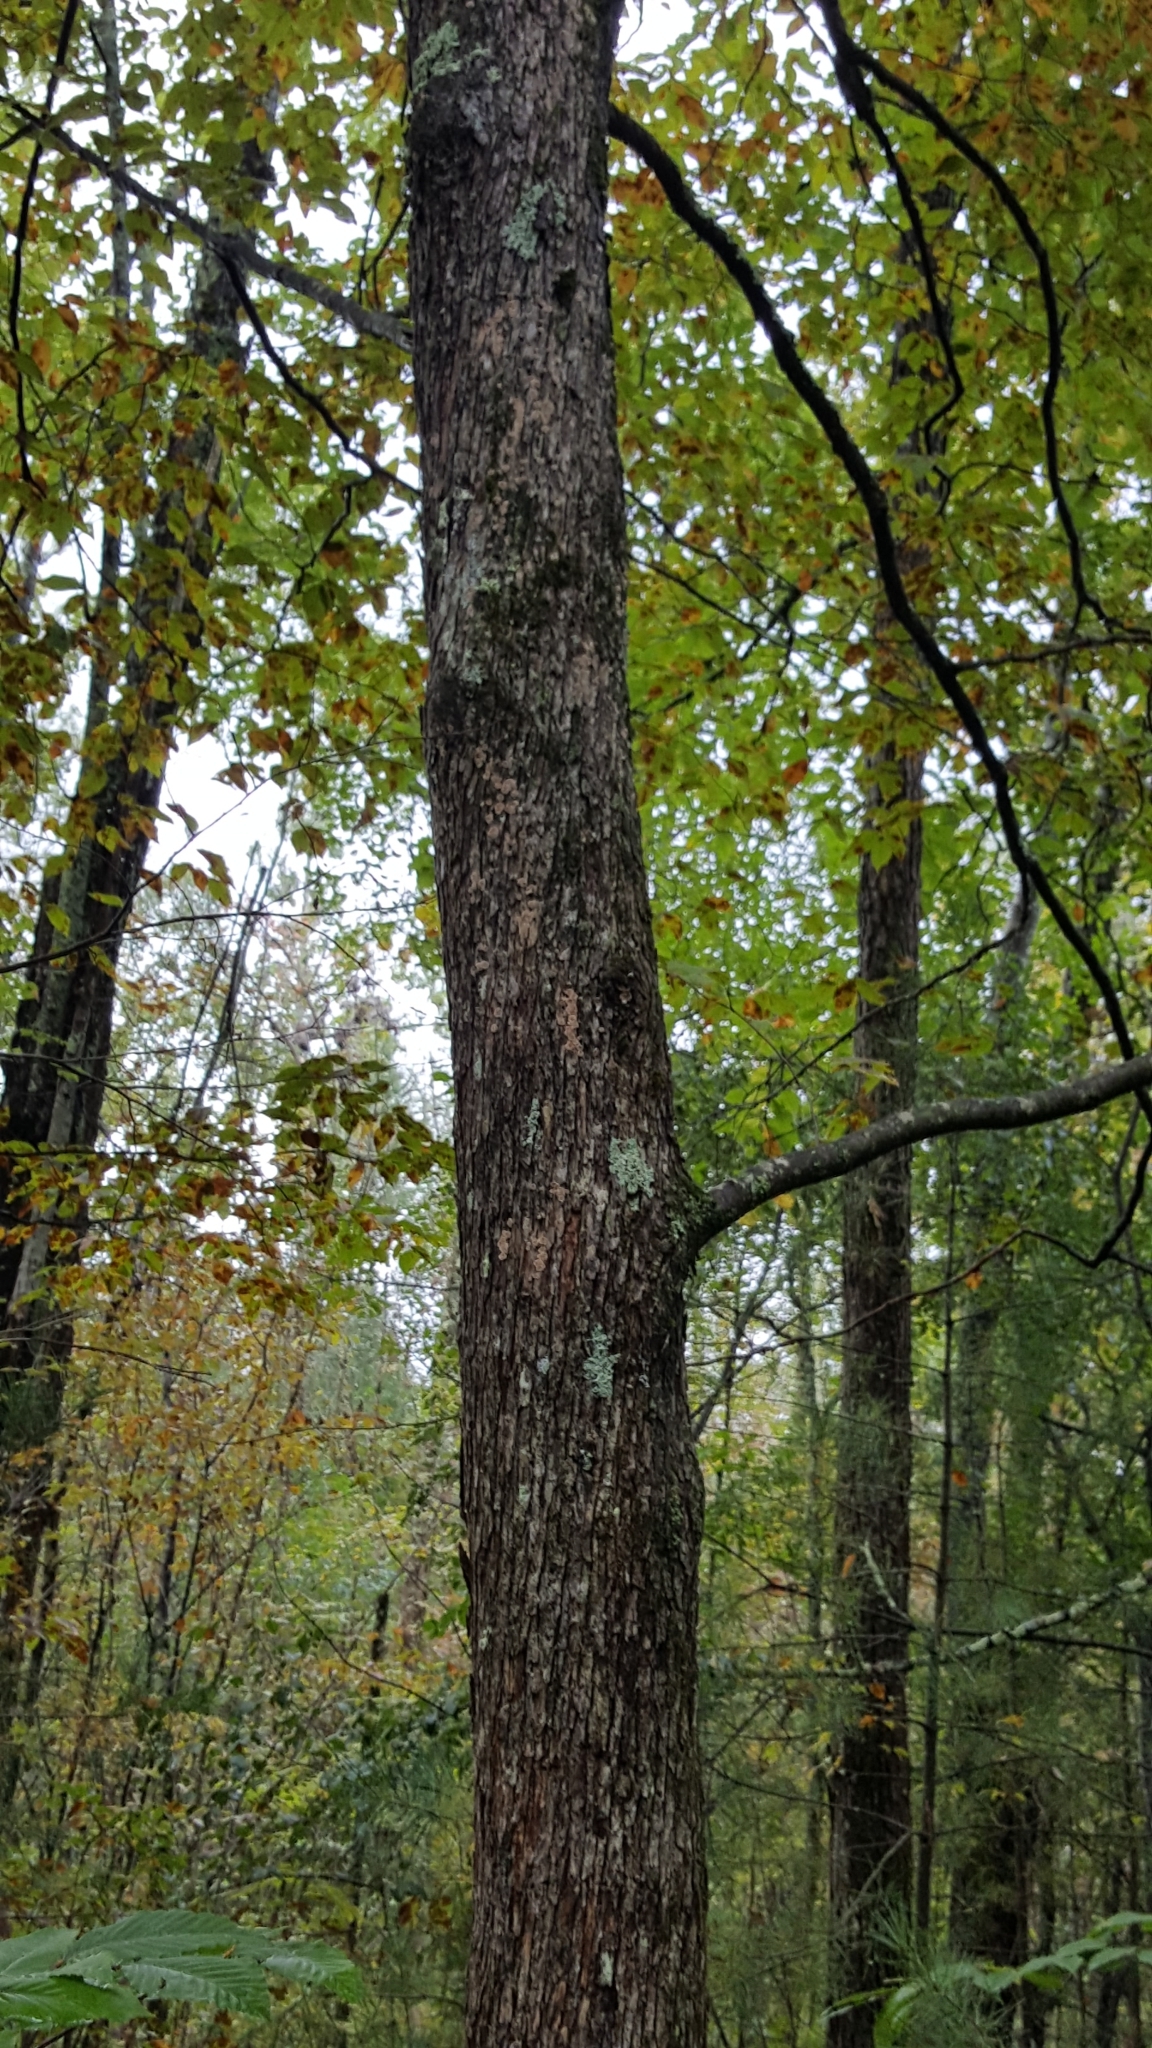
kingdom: Plantae
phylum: Tracheophyta
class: Magnoliopsida
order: Fagales
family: Betulaceae
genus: Ostrya
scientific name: Ostrya virginiana
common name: Ironwood
